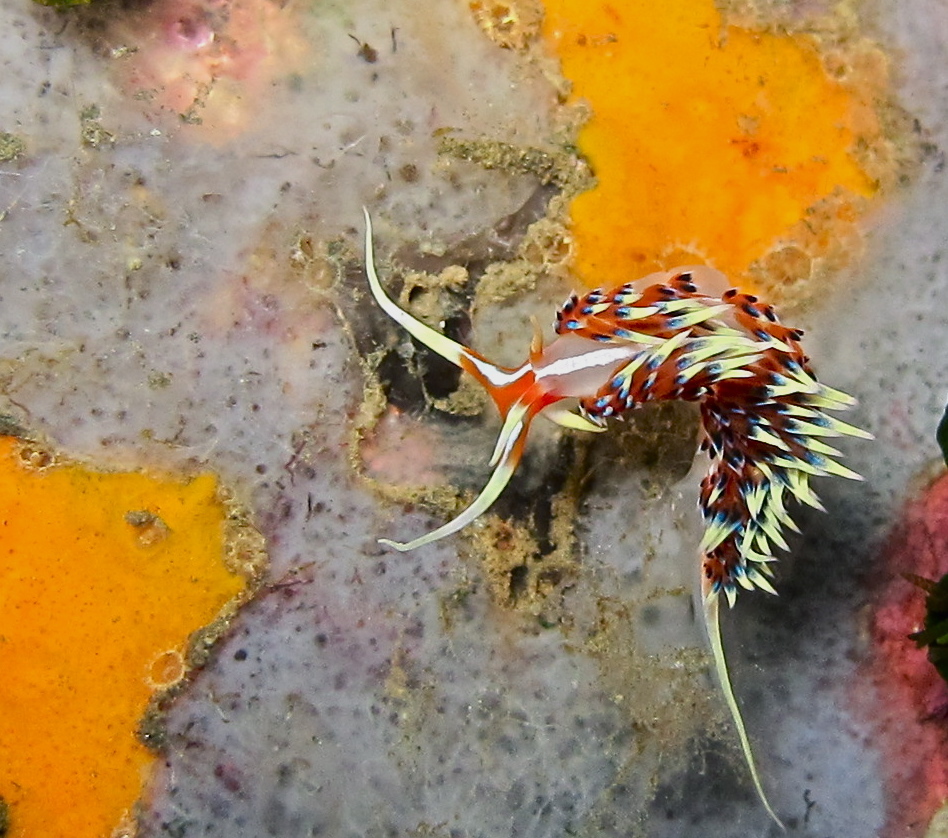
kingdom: Animalia
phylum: Mollusca
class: Gastropoda
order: Nudibranchia
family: Facelinidae
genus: Caloria
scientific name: Caloria indica
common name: Sea slug
